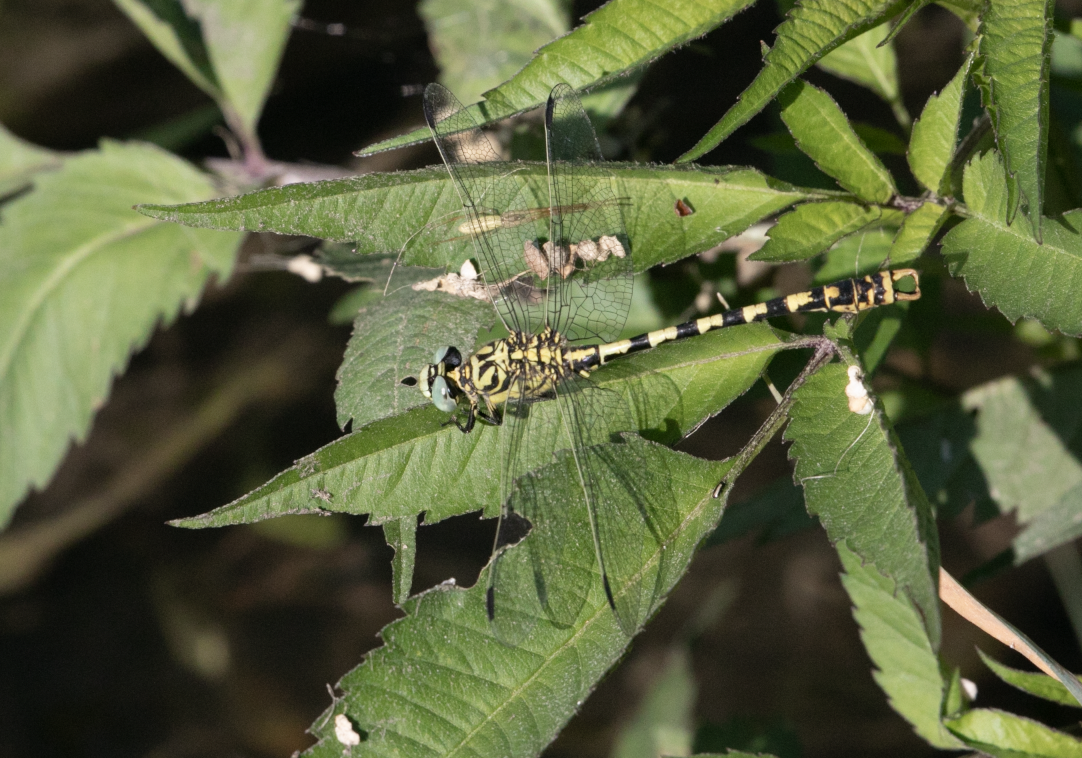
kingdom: Animalia
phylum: Arthropoda
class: Insecta
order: Odonata
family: Gomphidae
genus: Onychogomphus
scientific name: Onychogomphus forcipatus
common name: Small pincertail
